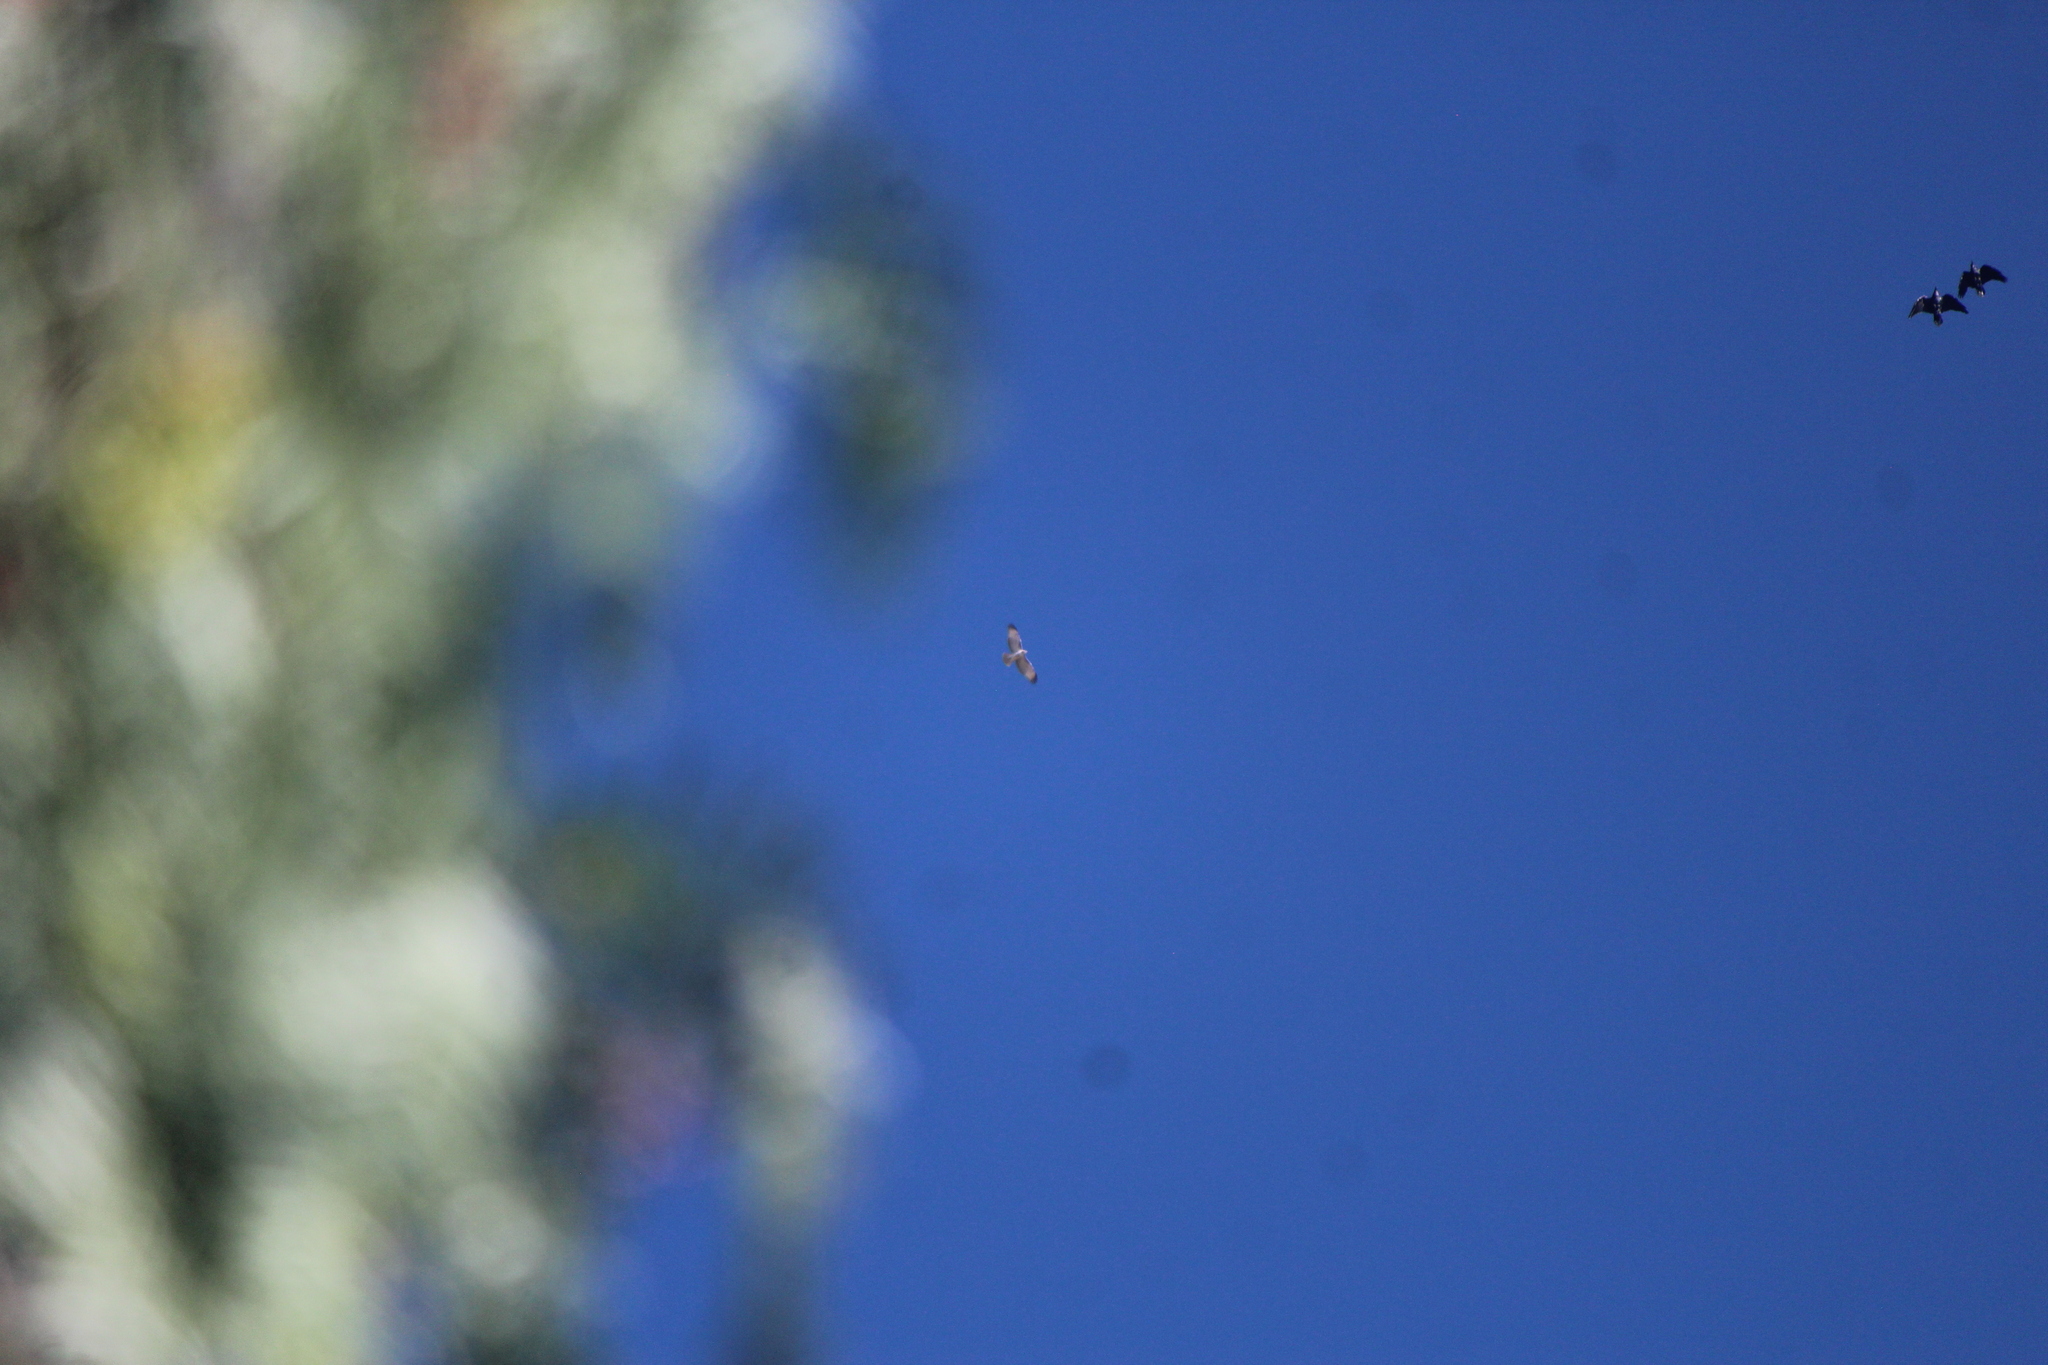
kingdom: Animalia
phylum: Chordata
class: Aves
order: Passeriformes
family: Corvidae
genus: Corvus
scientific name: Corvus corax
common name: Common raven
